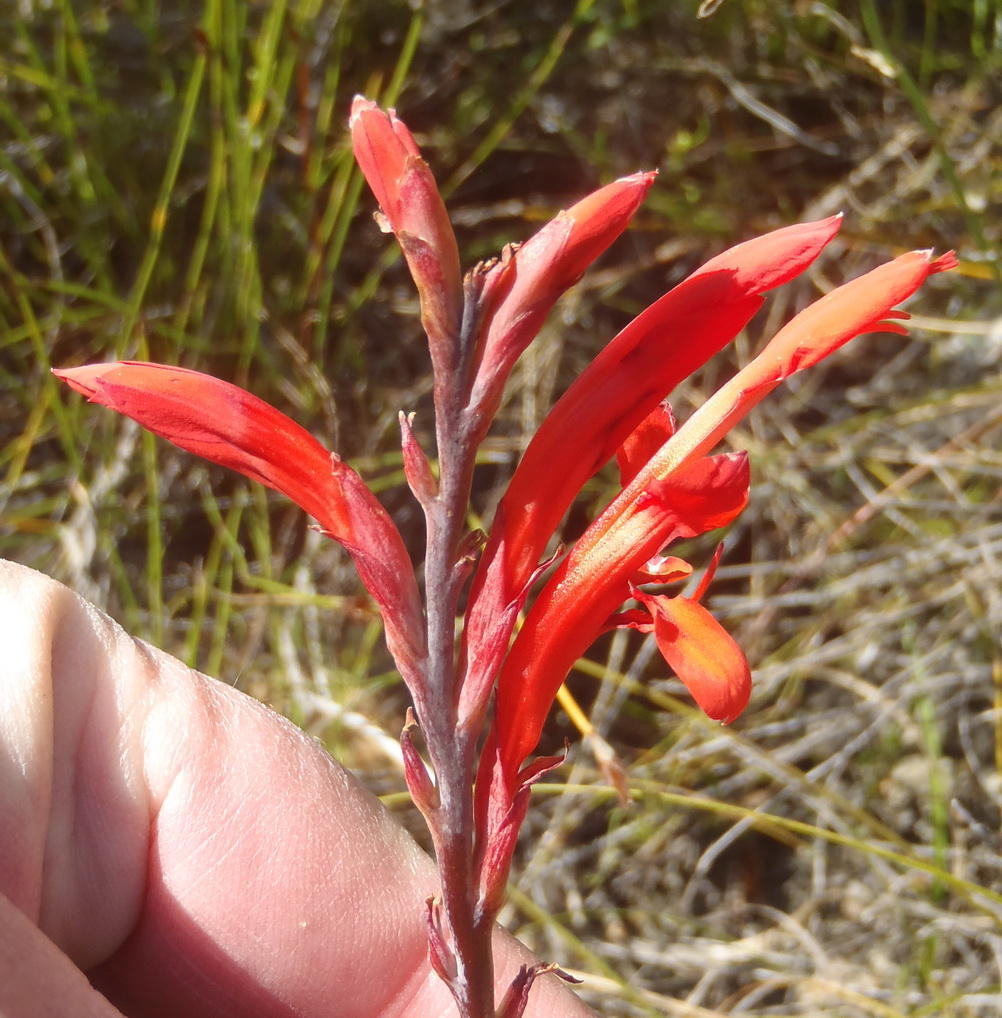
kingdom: Plantae
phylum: Tracheophyta
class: Liliopsida
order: Asparagales
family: Iridaceae
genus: Tritoniopsis
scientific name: Tritoniopsis caffra
